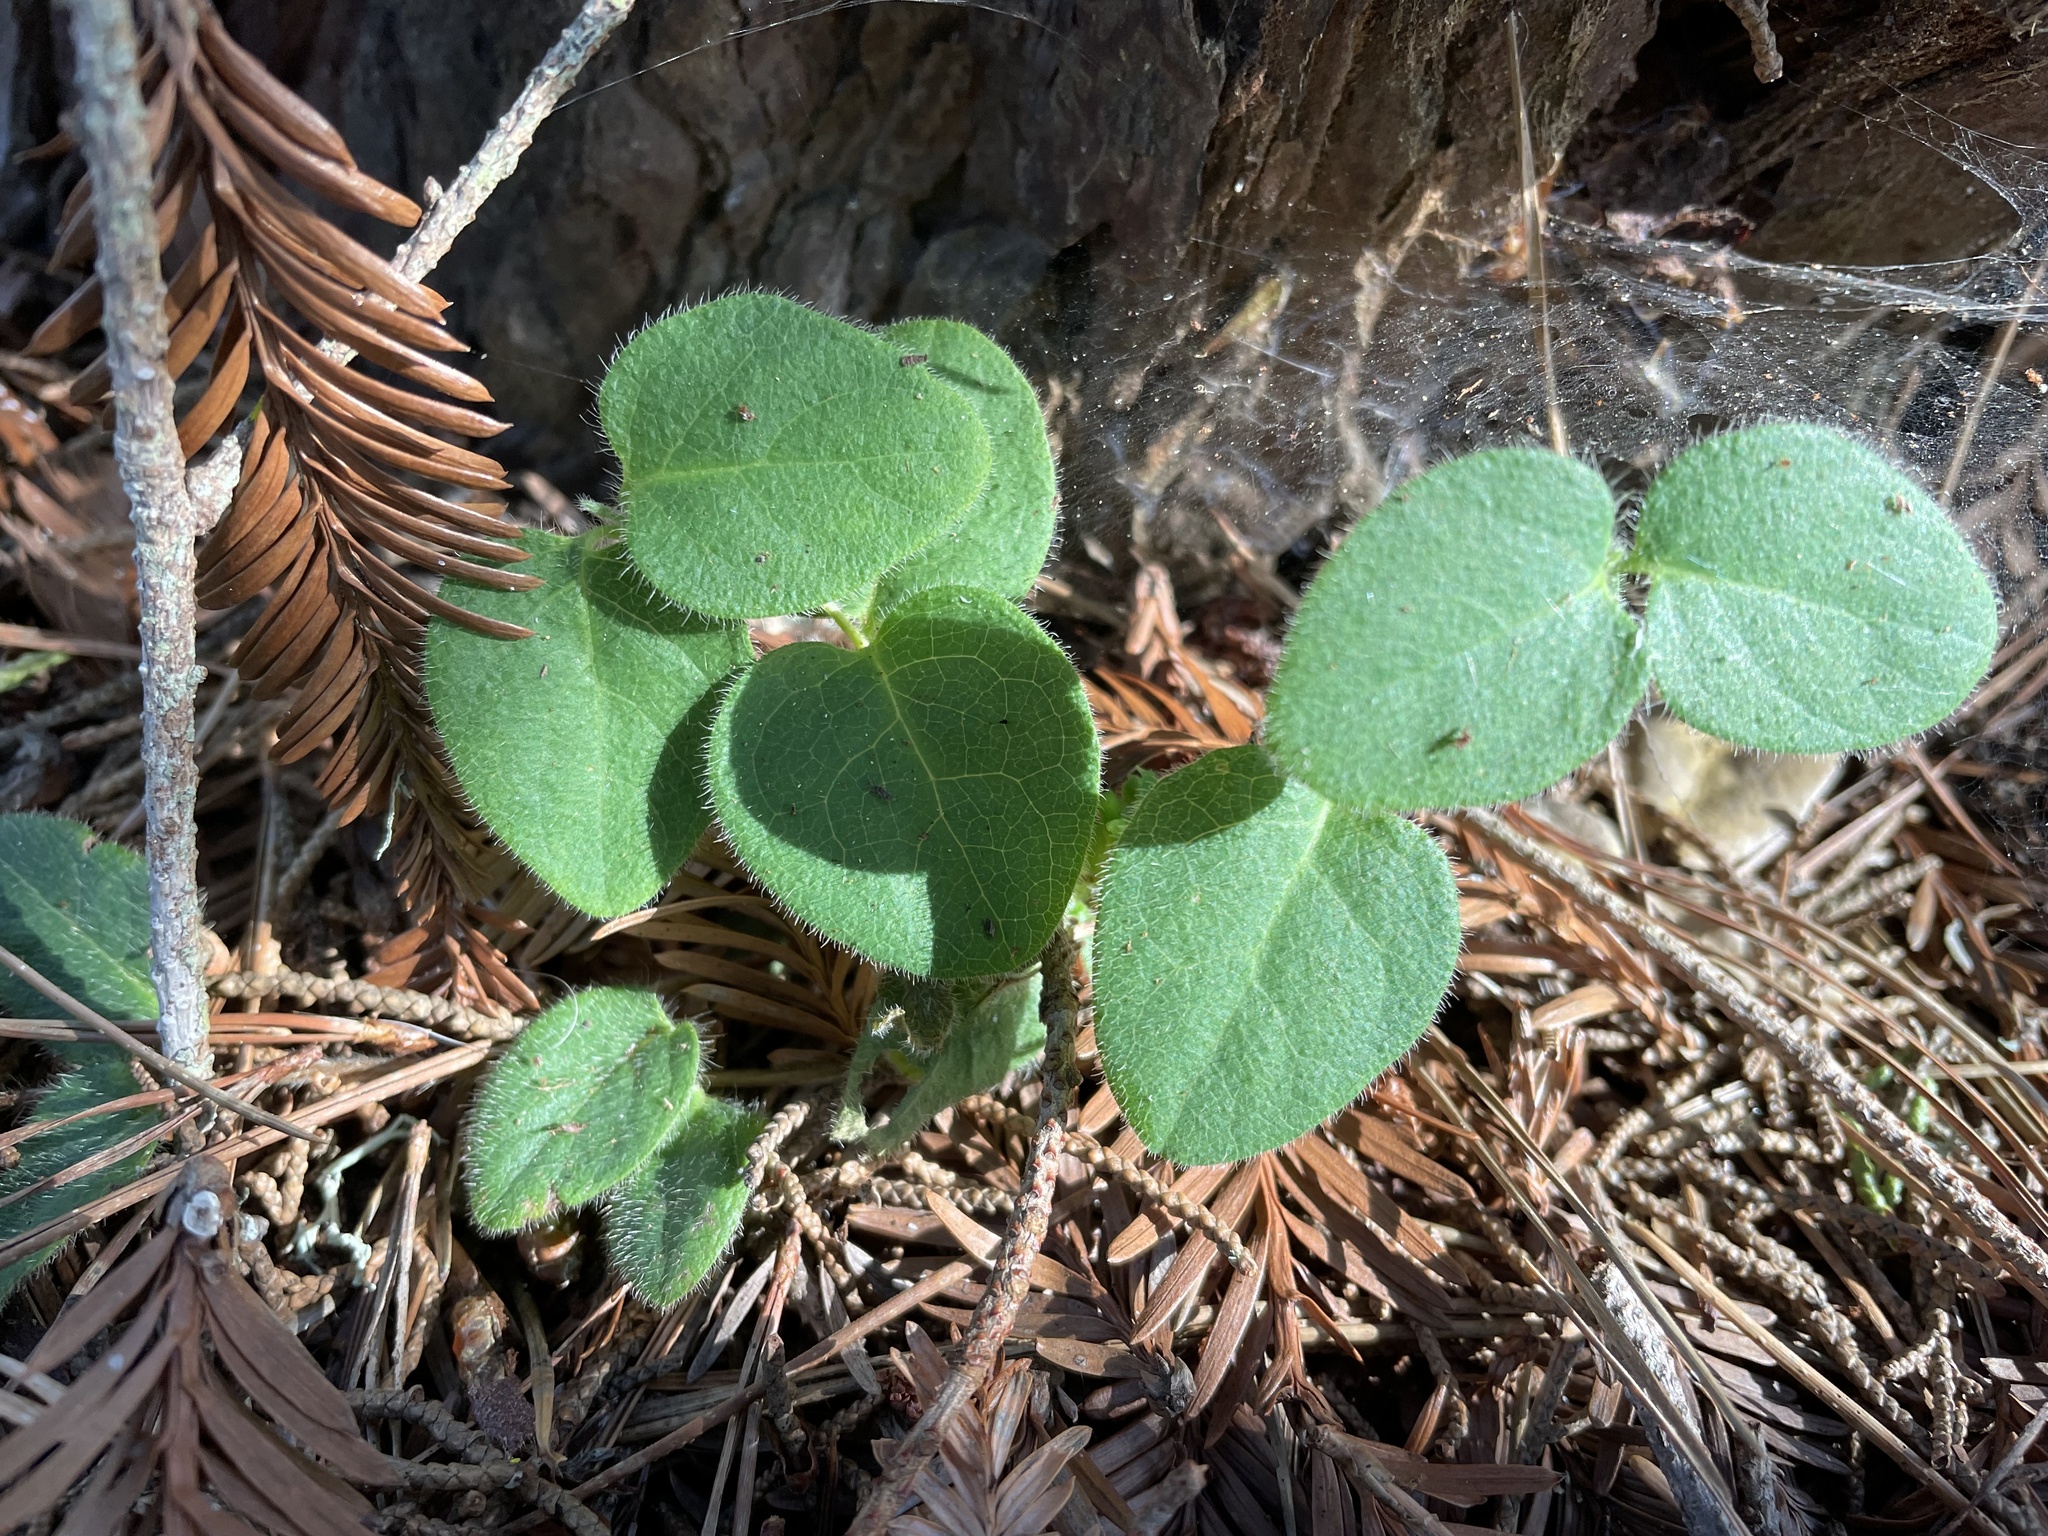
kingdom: Plantae
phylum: Tracheophyta
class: Magnoliopsida
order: Dipsacales
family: Caprifoliaceae
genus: Lonicera
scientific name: Lonicera hispidula
